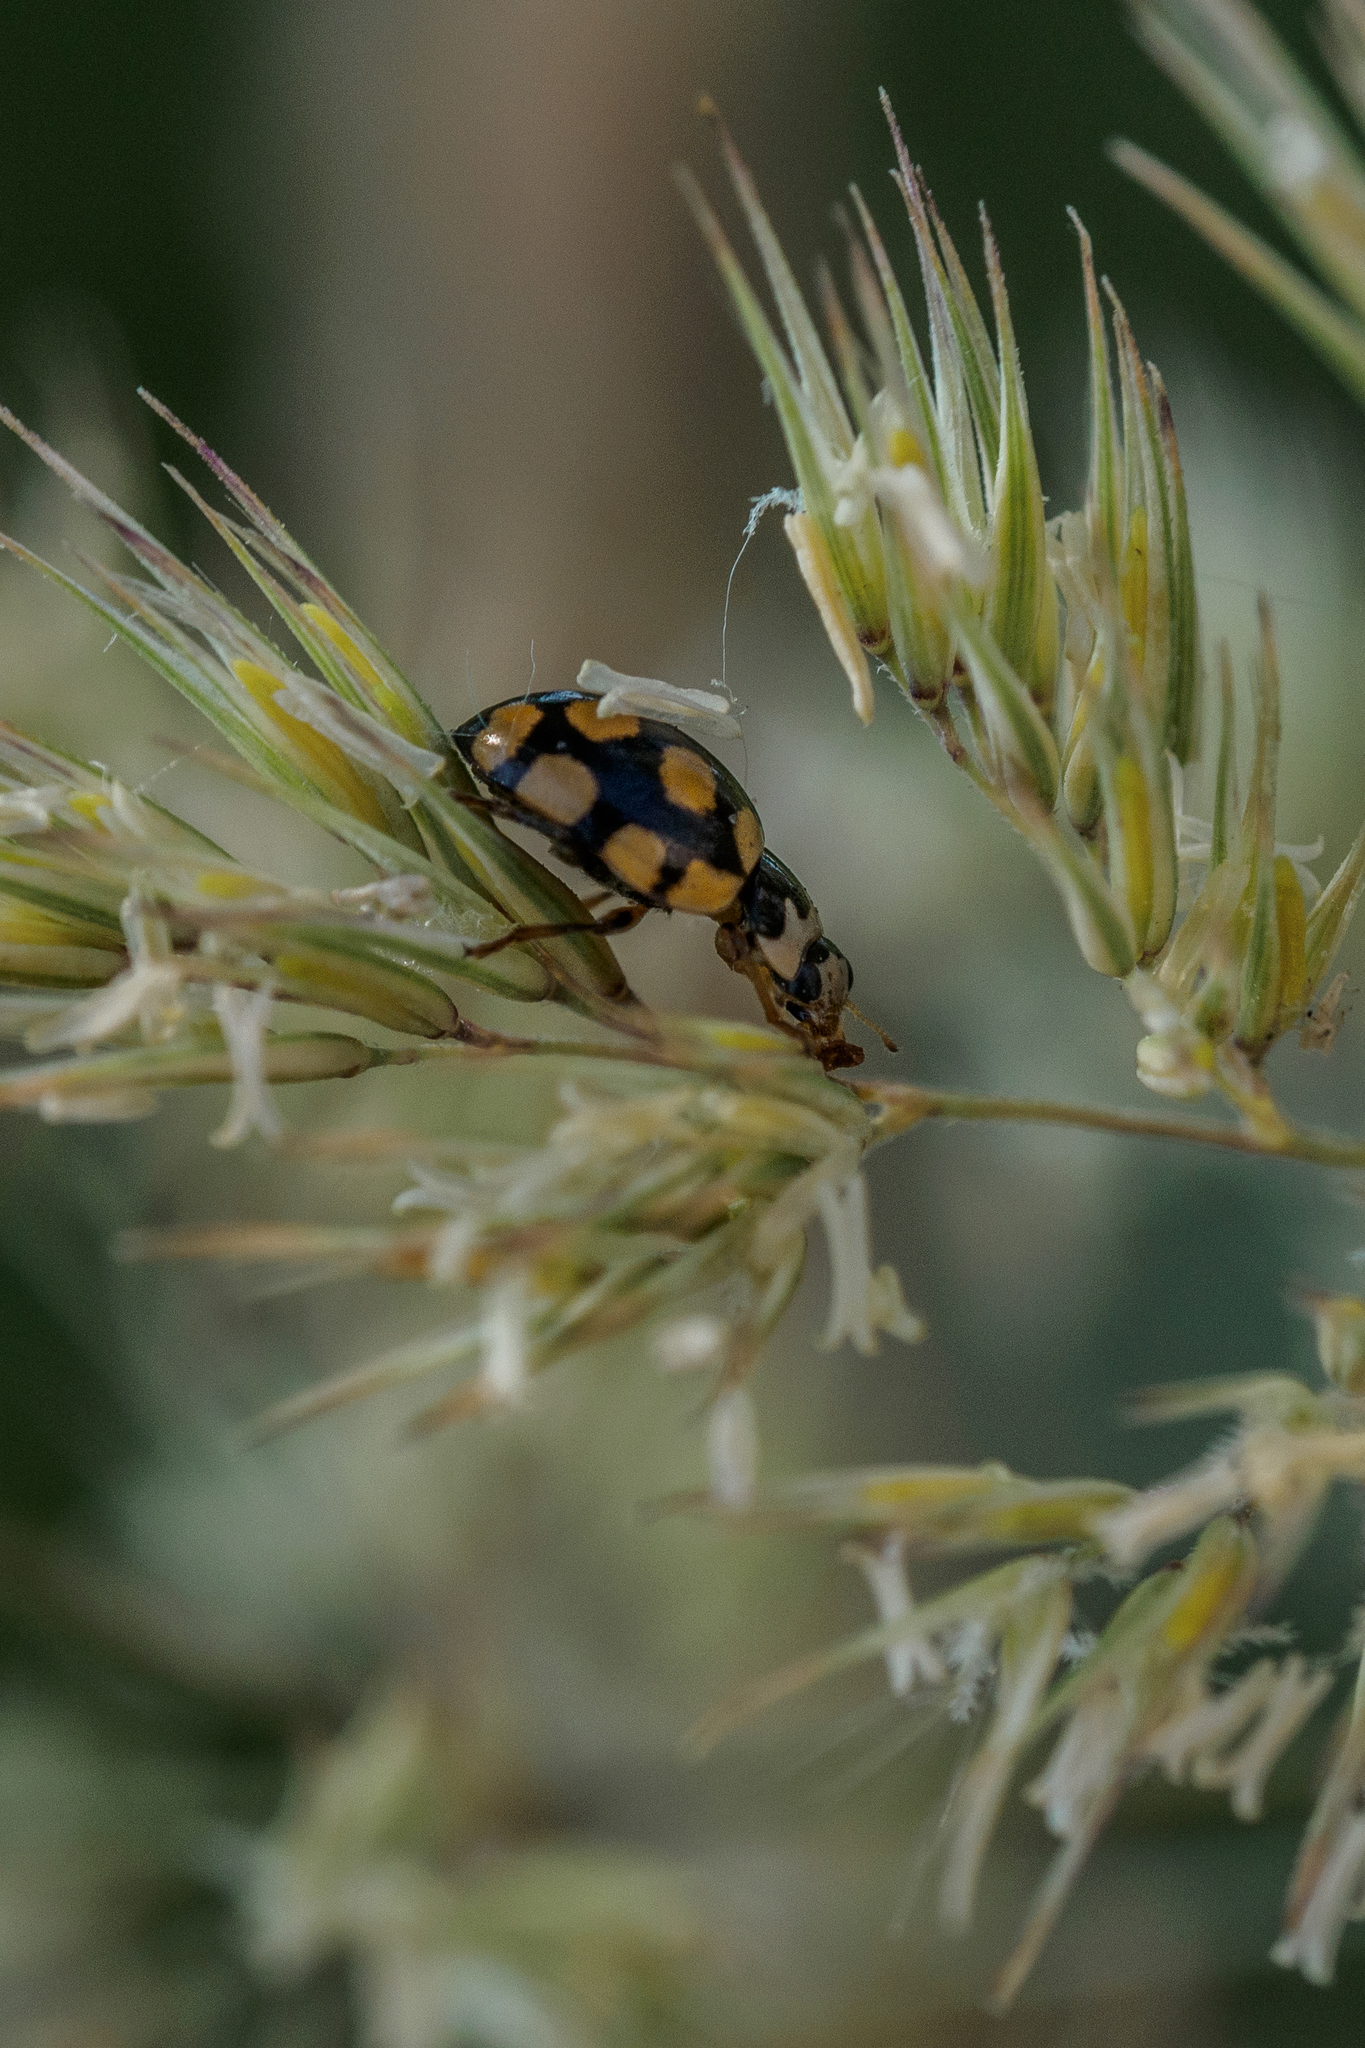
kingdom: Animalia
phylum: Arthropoda
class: Insecta
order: Coleoptera
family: Coccinellidae
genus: Coccinula
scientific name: Coccinula quatuordecimpustulata
